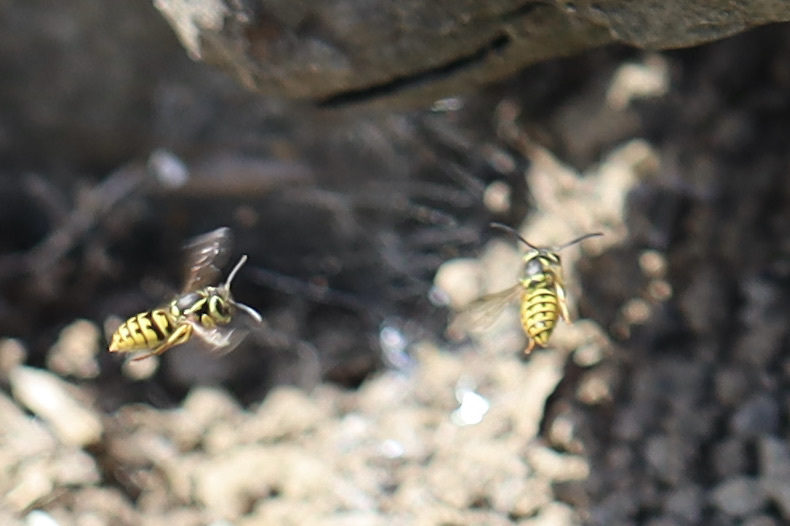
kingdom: Animalia
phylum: Arthropoda
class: Insecta
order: Hymenoptera
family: Vespidae
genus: Vespula
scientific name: Vespula pensylvanica
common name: Western yellowjacket
